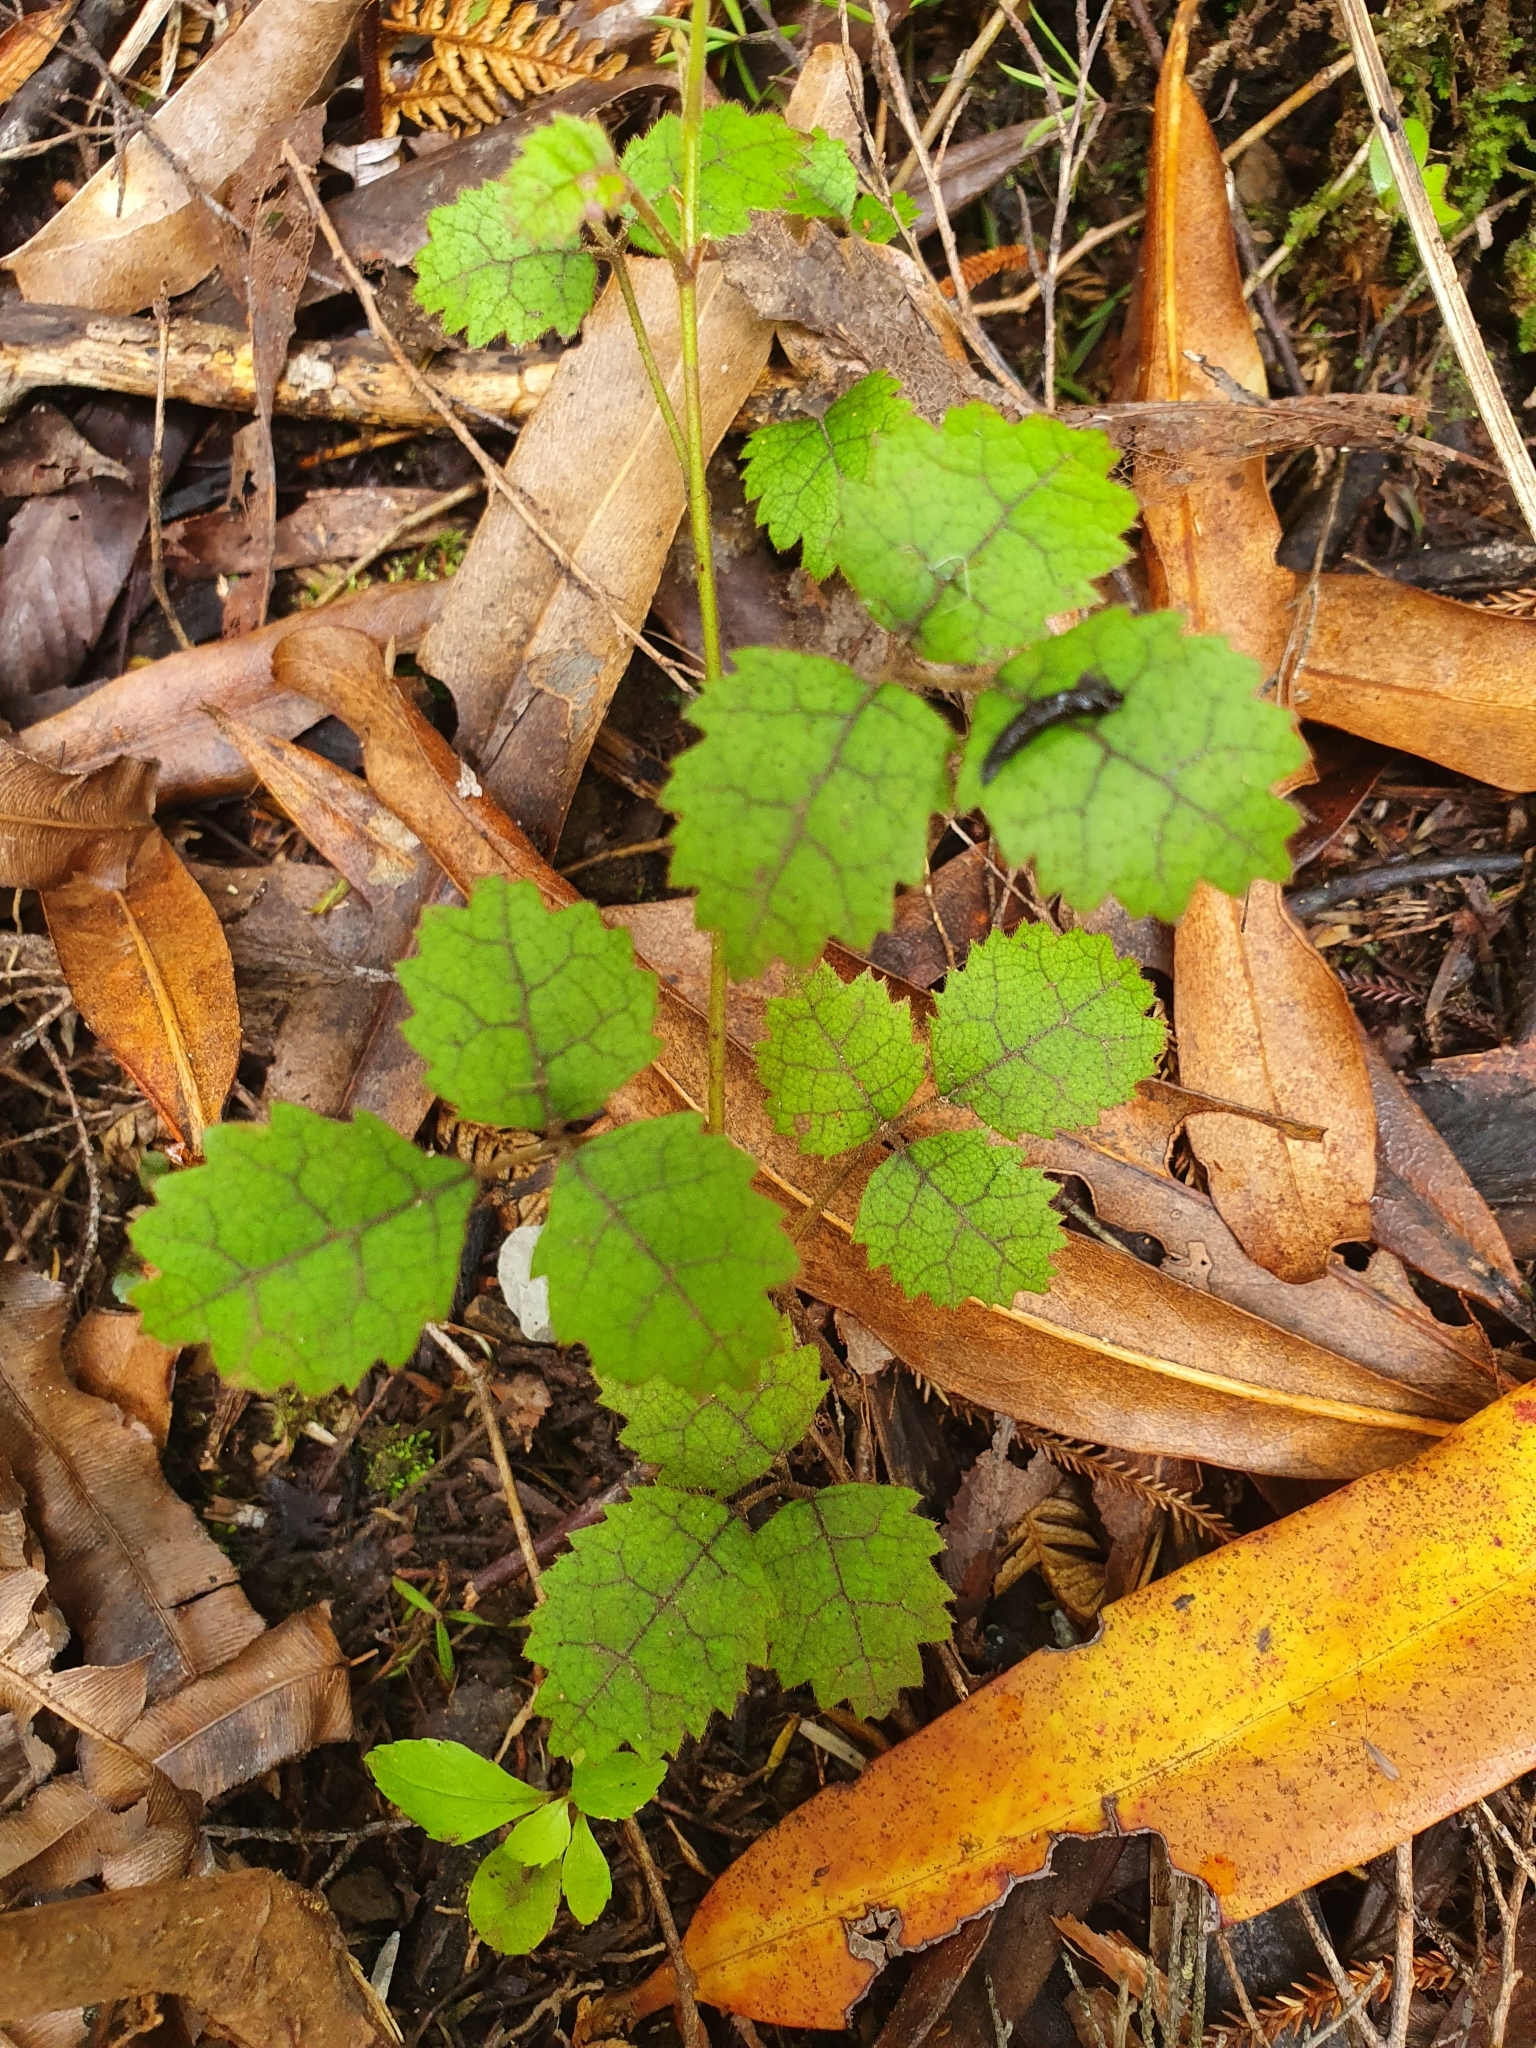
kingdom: Plantae
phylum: Tracheophyta
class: Magnoliopsida
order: Rosales
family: Rosaceae
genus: Rubus
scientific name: Rubus australis
